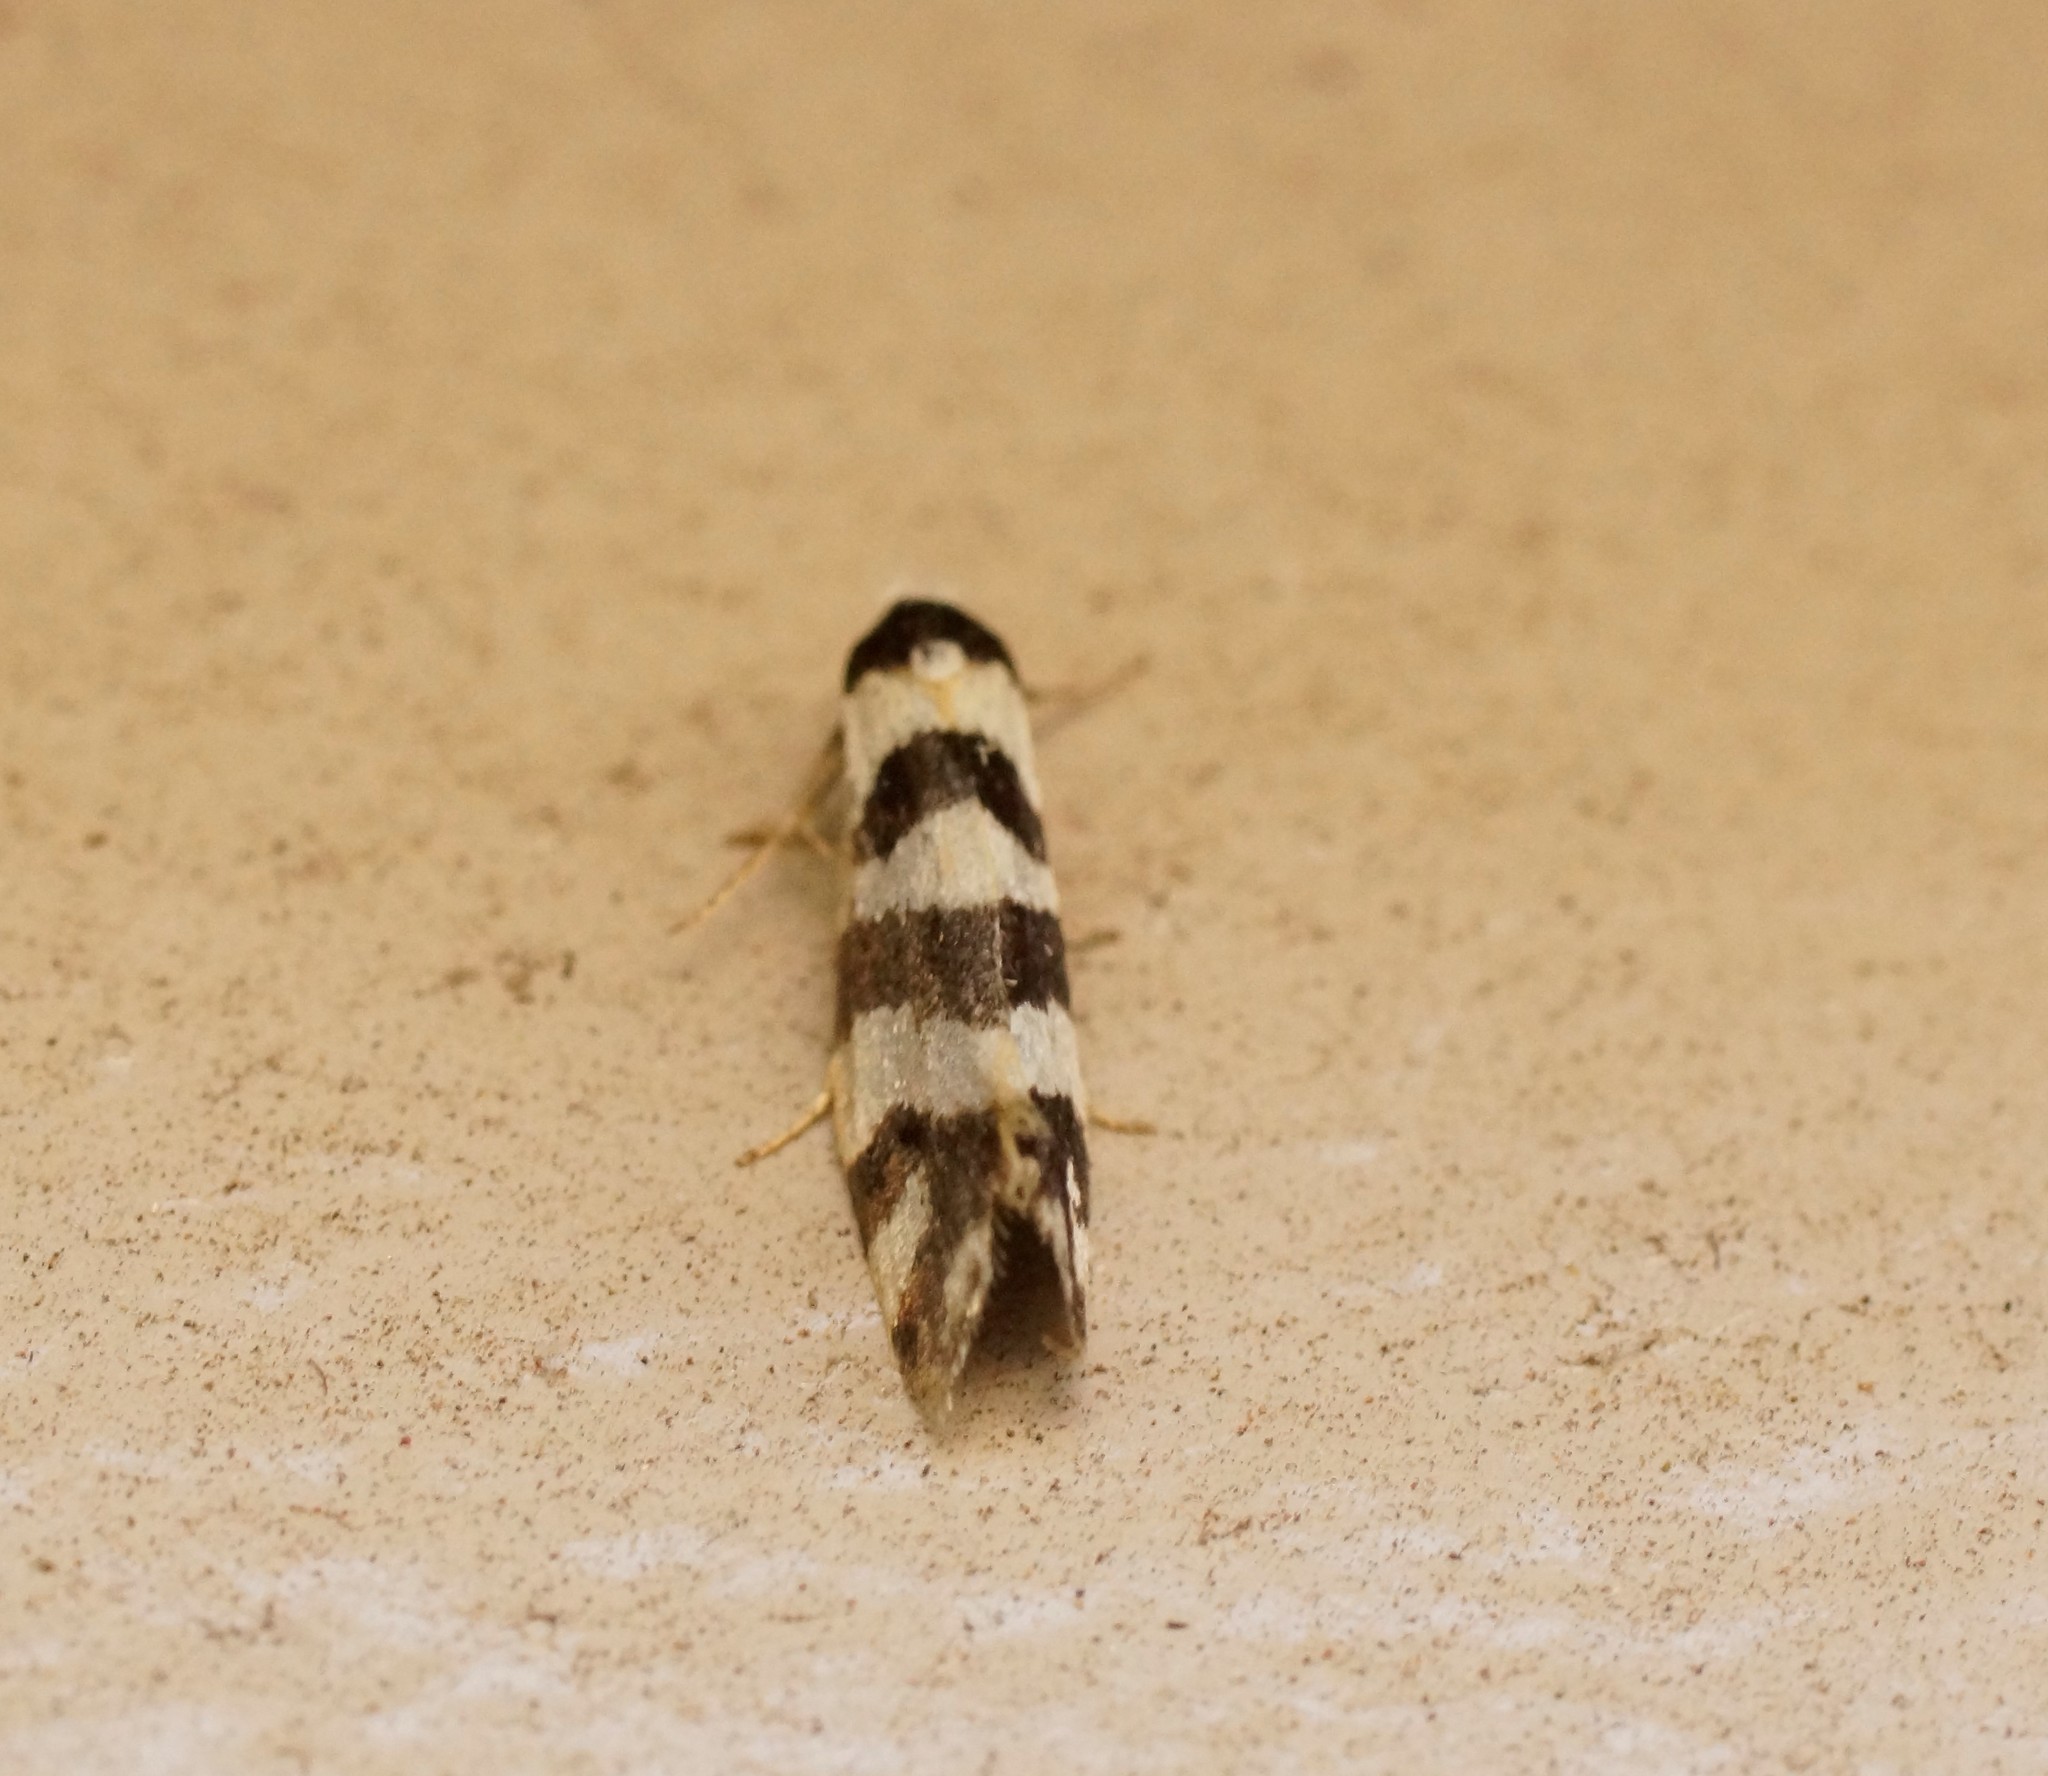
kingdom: Animalia
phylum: Arthropoda
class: Insecta
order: Lepidoptera
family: Psychidae
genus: Lepidoscia
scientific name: Lepidoscia characota
